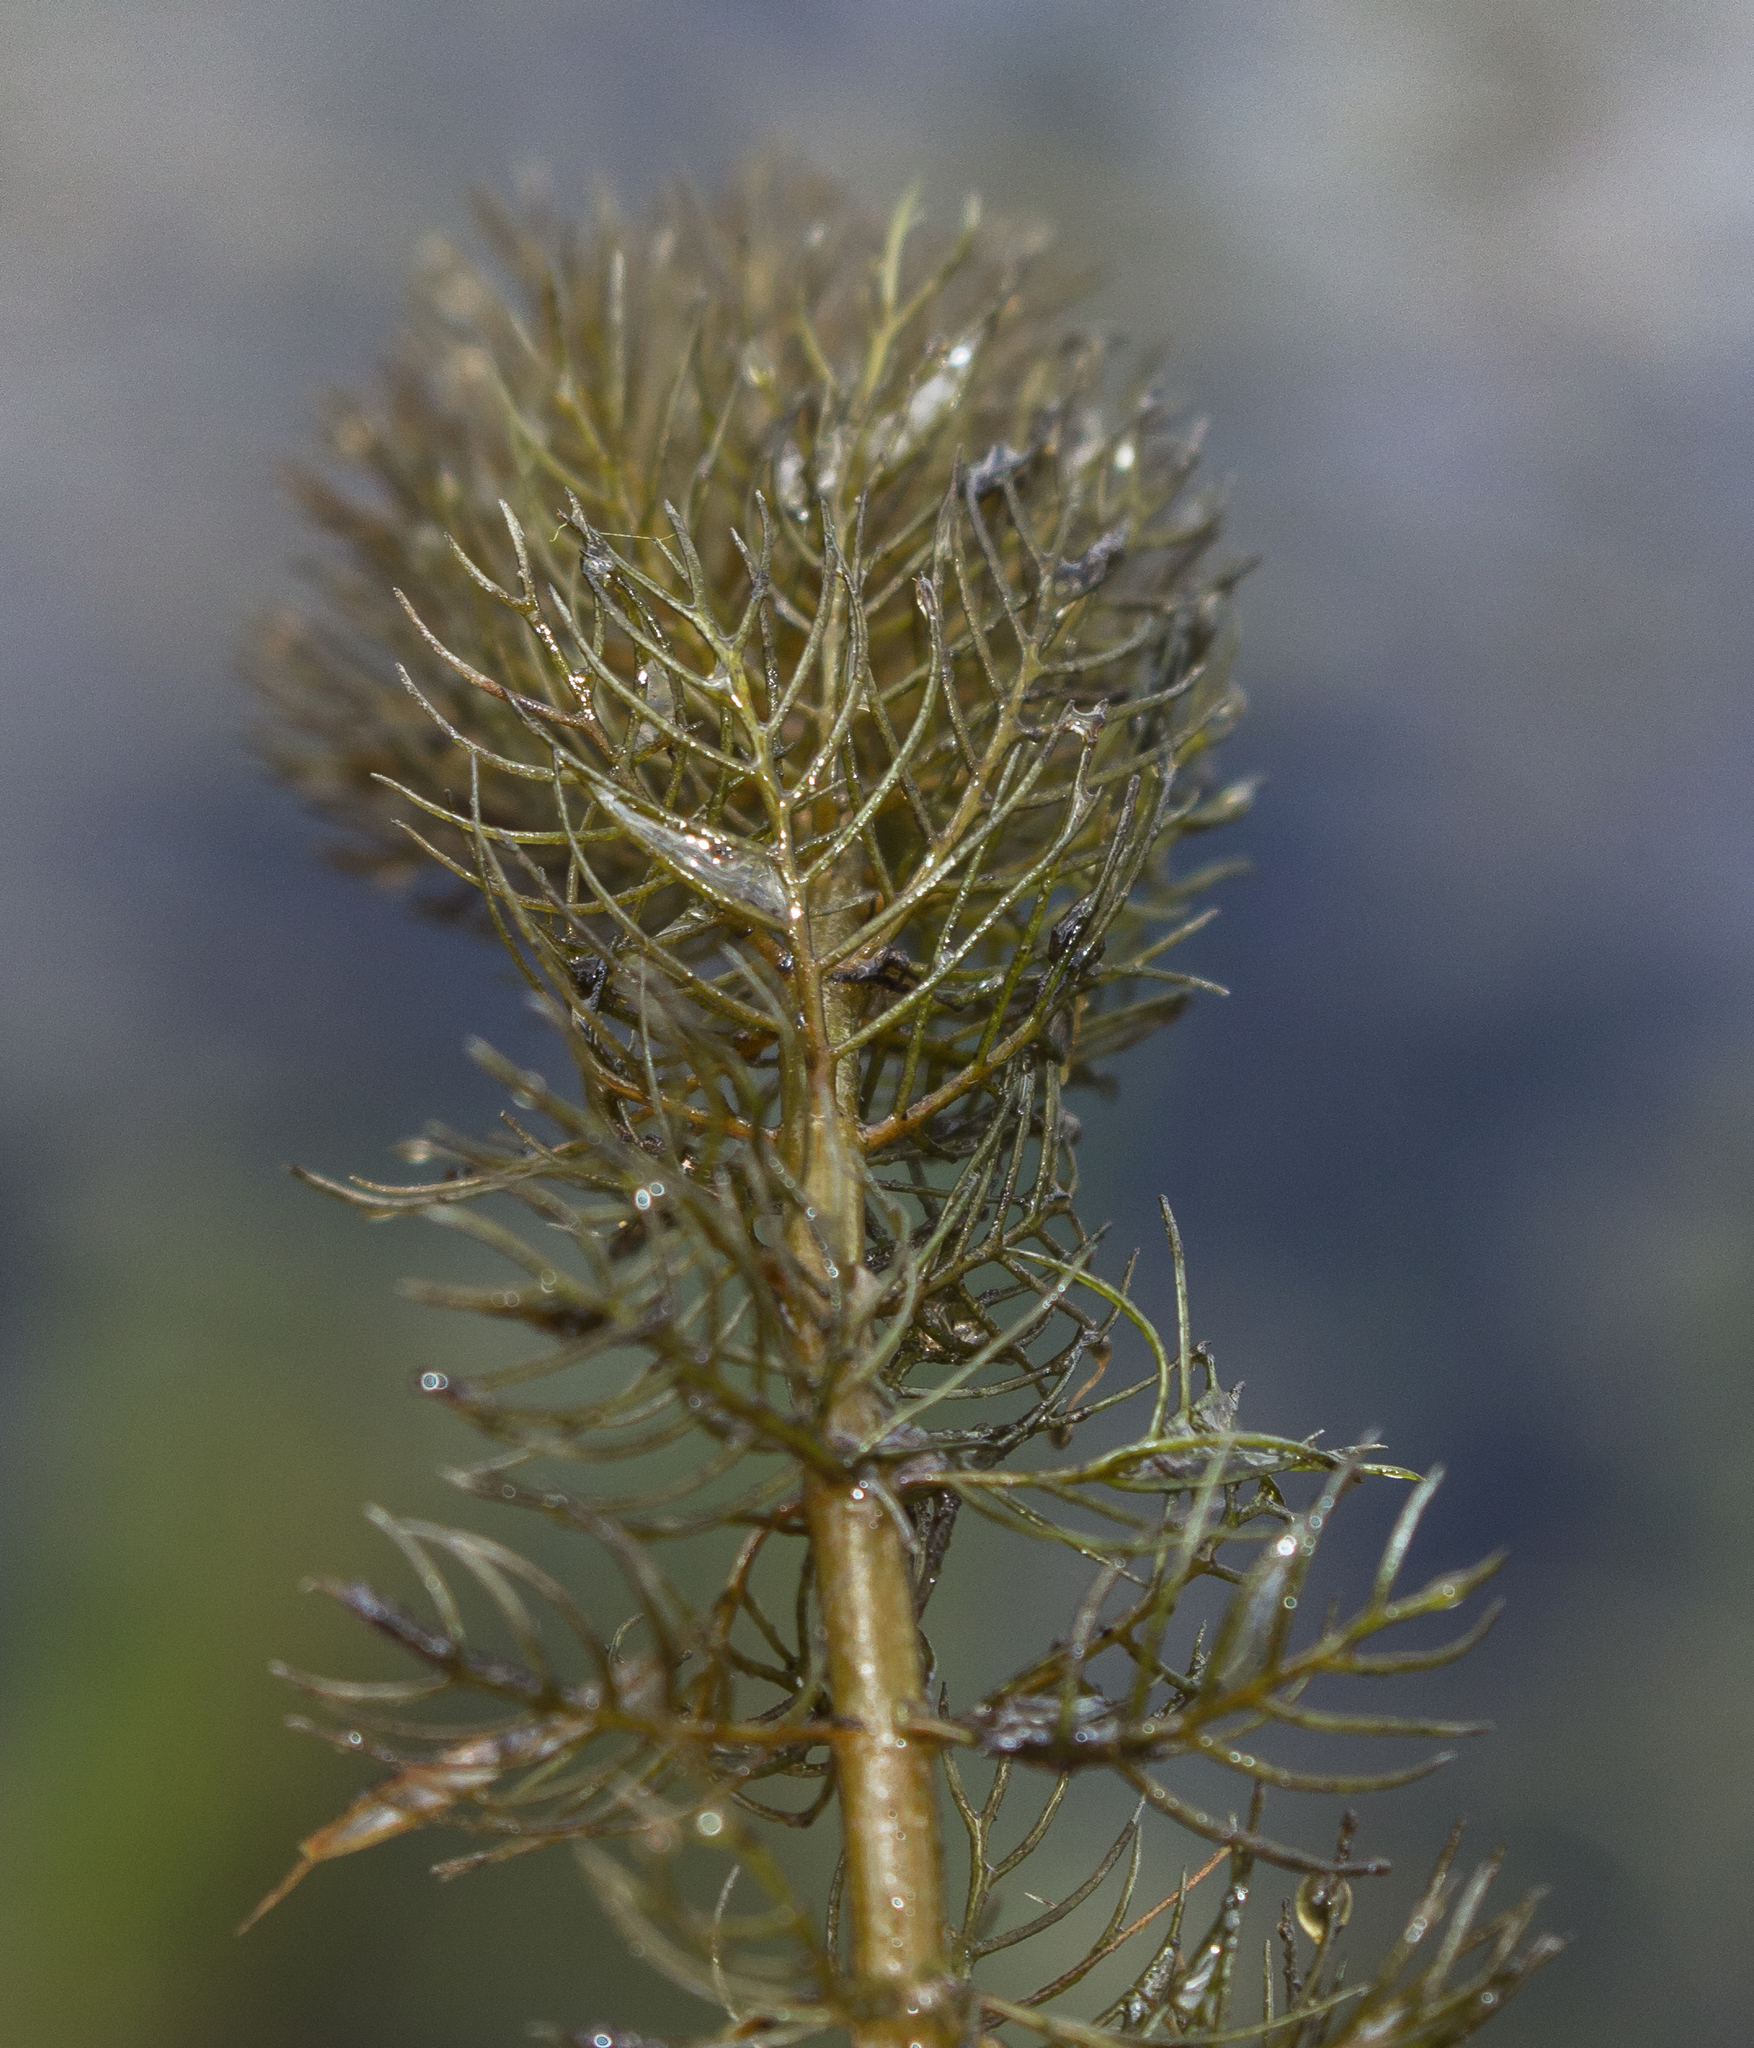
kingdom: Plantae
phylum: Tracheophyta
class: Magnoliopsida
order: Saxifragales
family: Haloragaceae
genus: Myriophyllum
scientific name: Myriophyllum verticillatum
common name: Whorled water-milfoil
